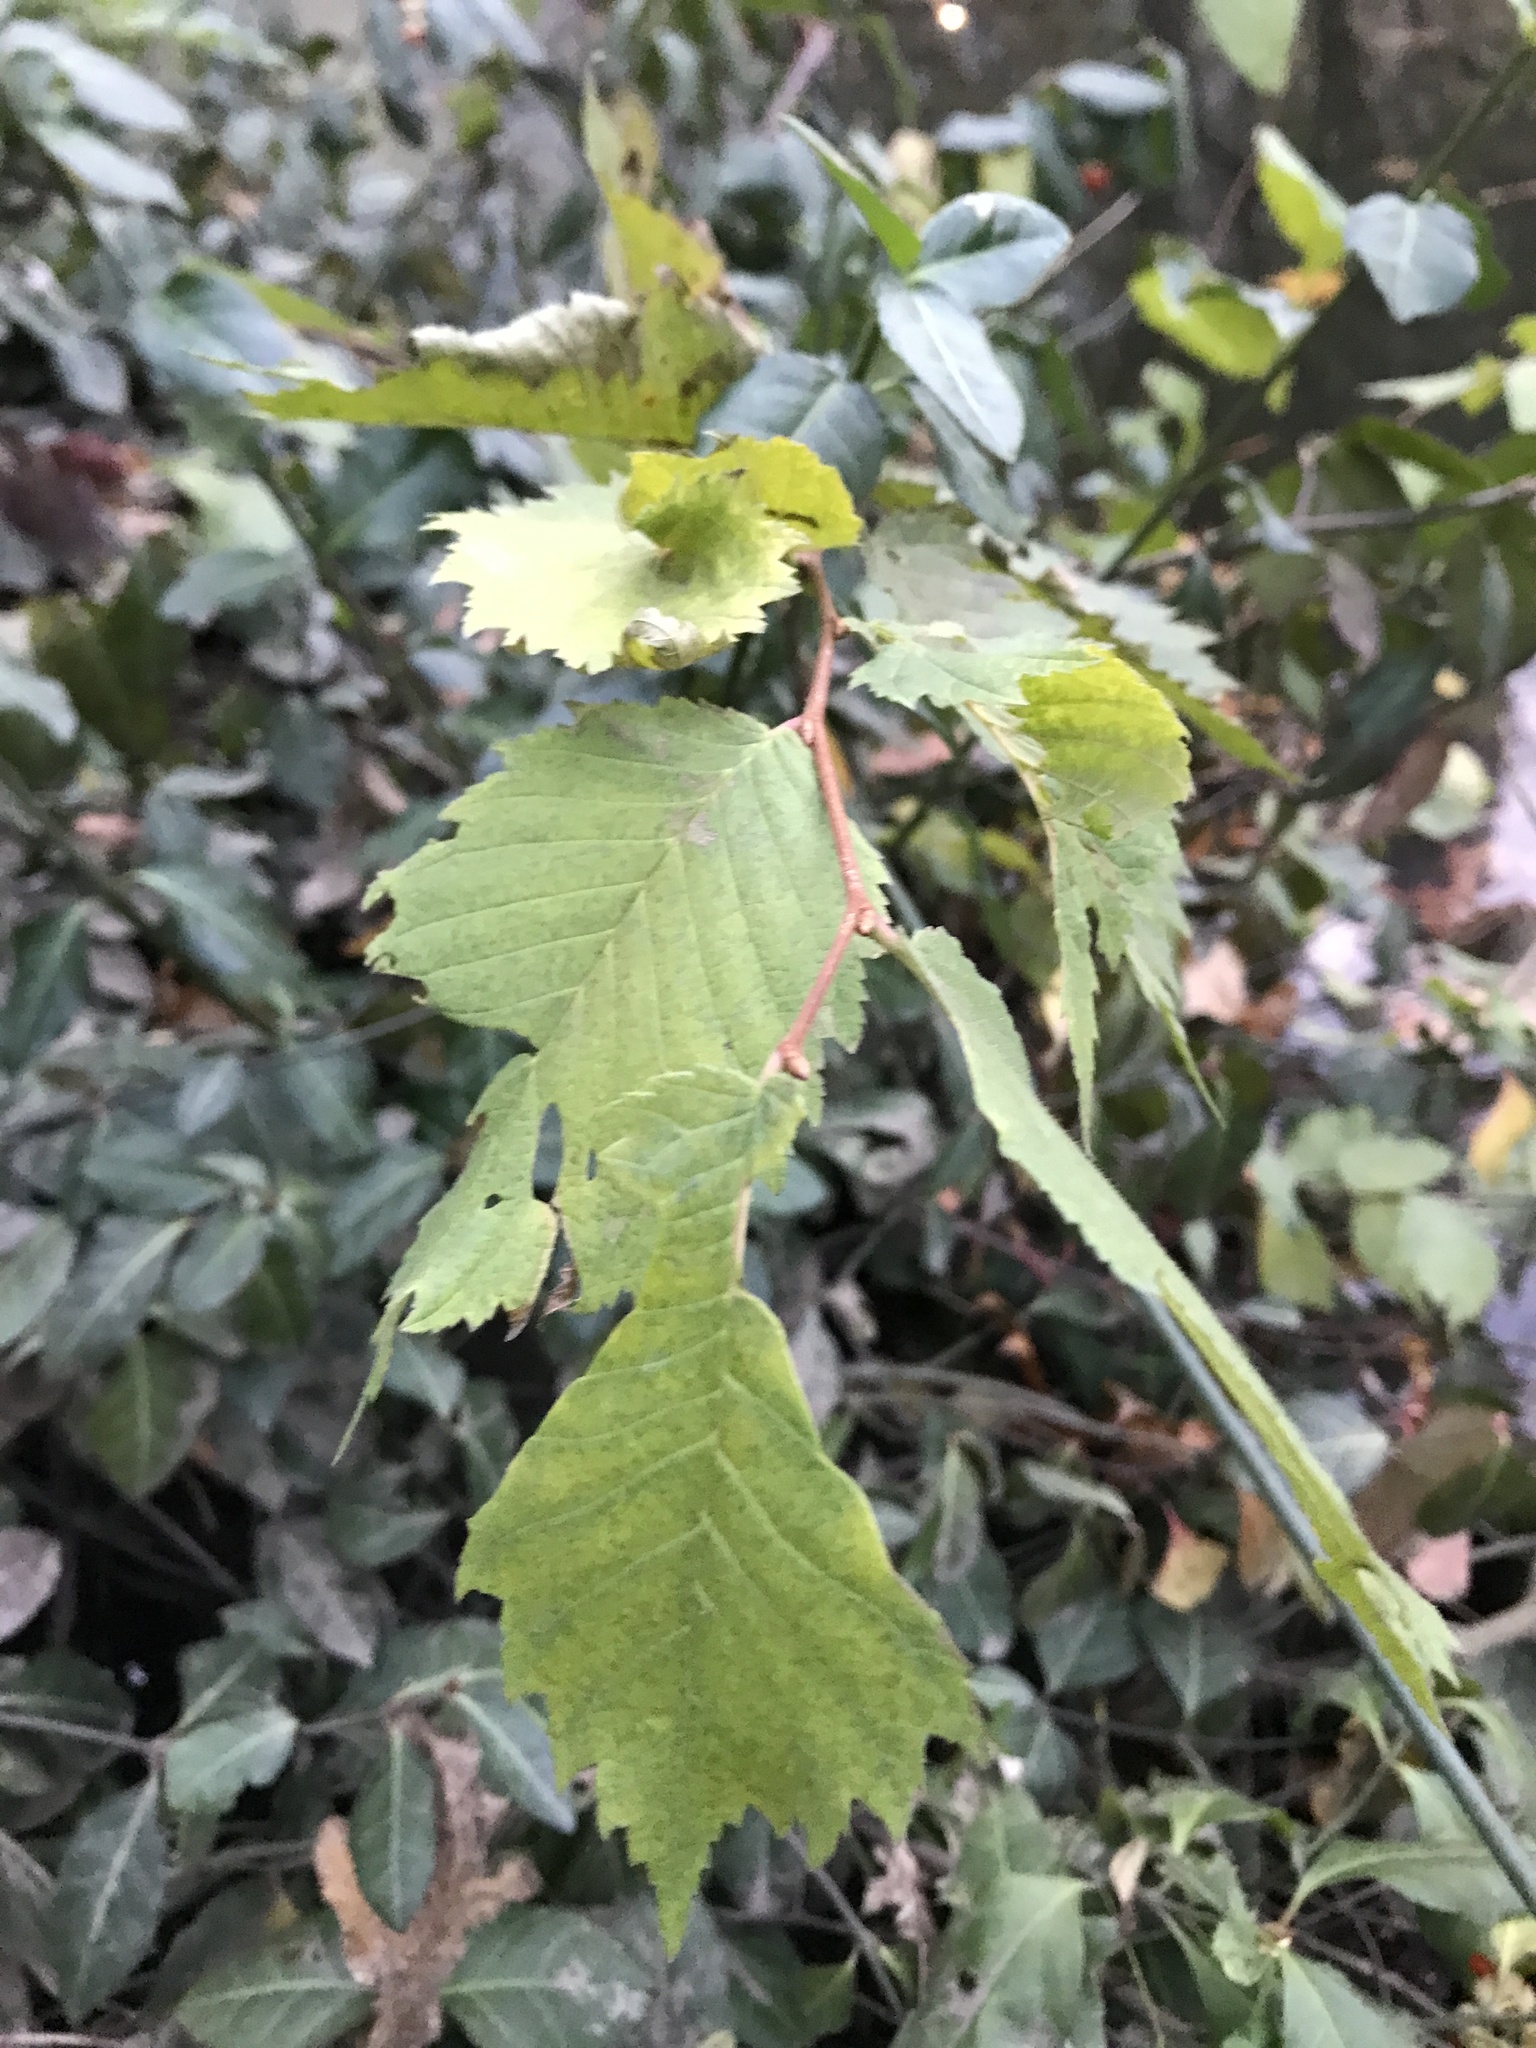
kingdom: Plantae
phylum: Tracheophyta
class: Magnoliopsida
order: Fagales
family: Betulaceae
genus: Betula
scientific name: Betula nigra
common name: Black birch
